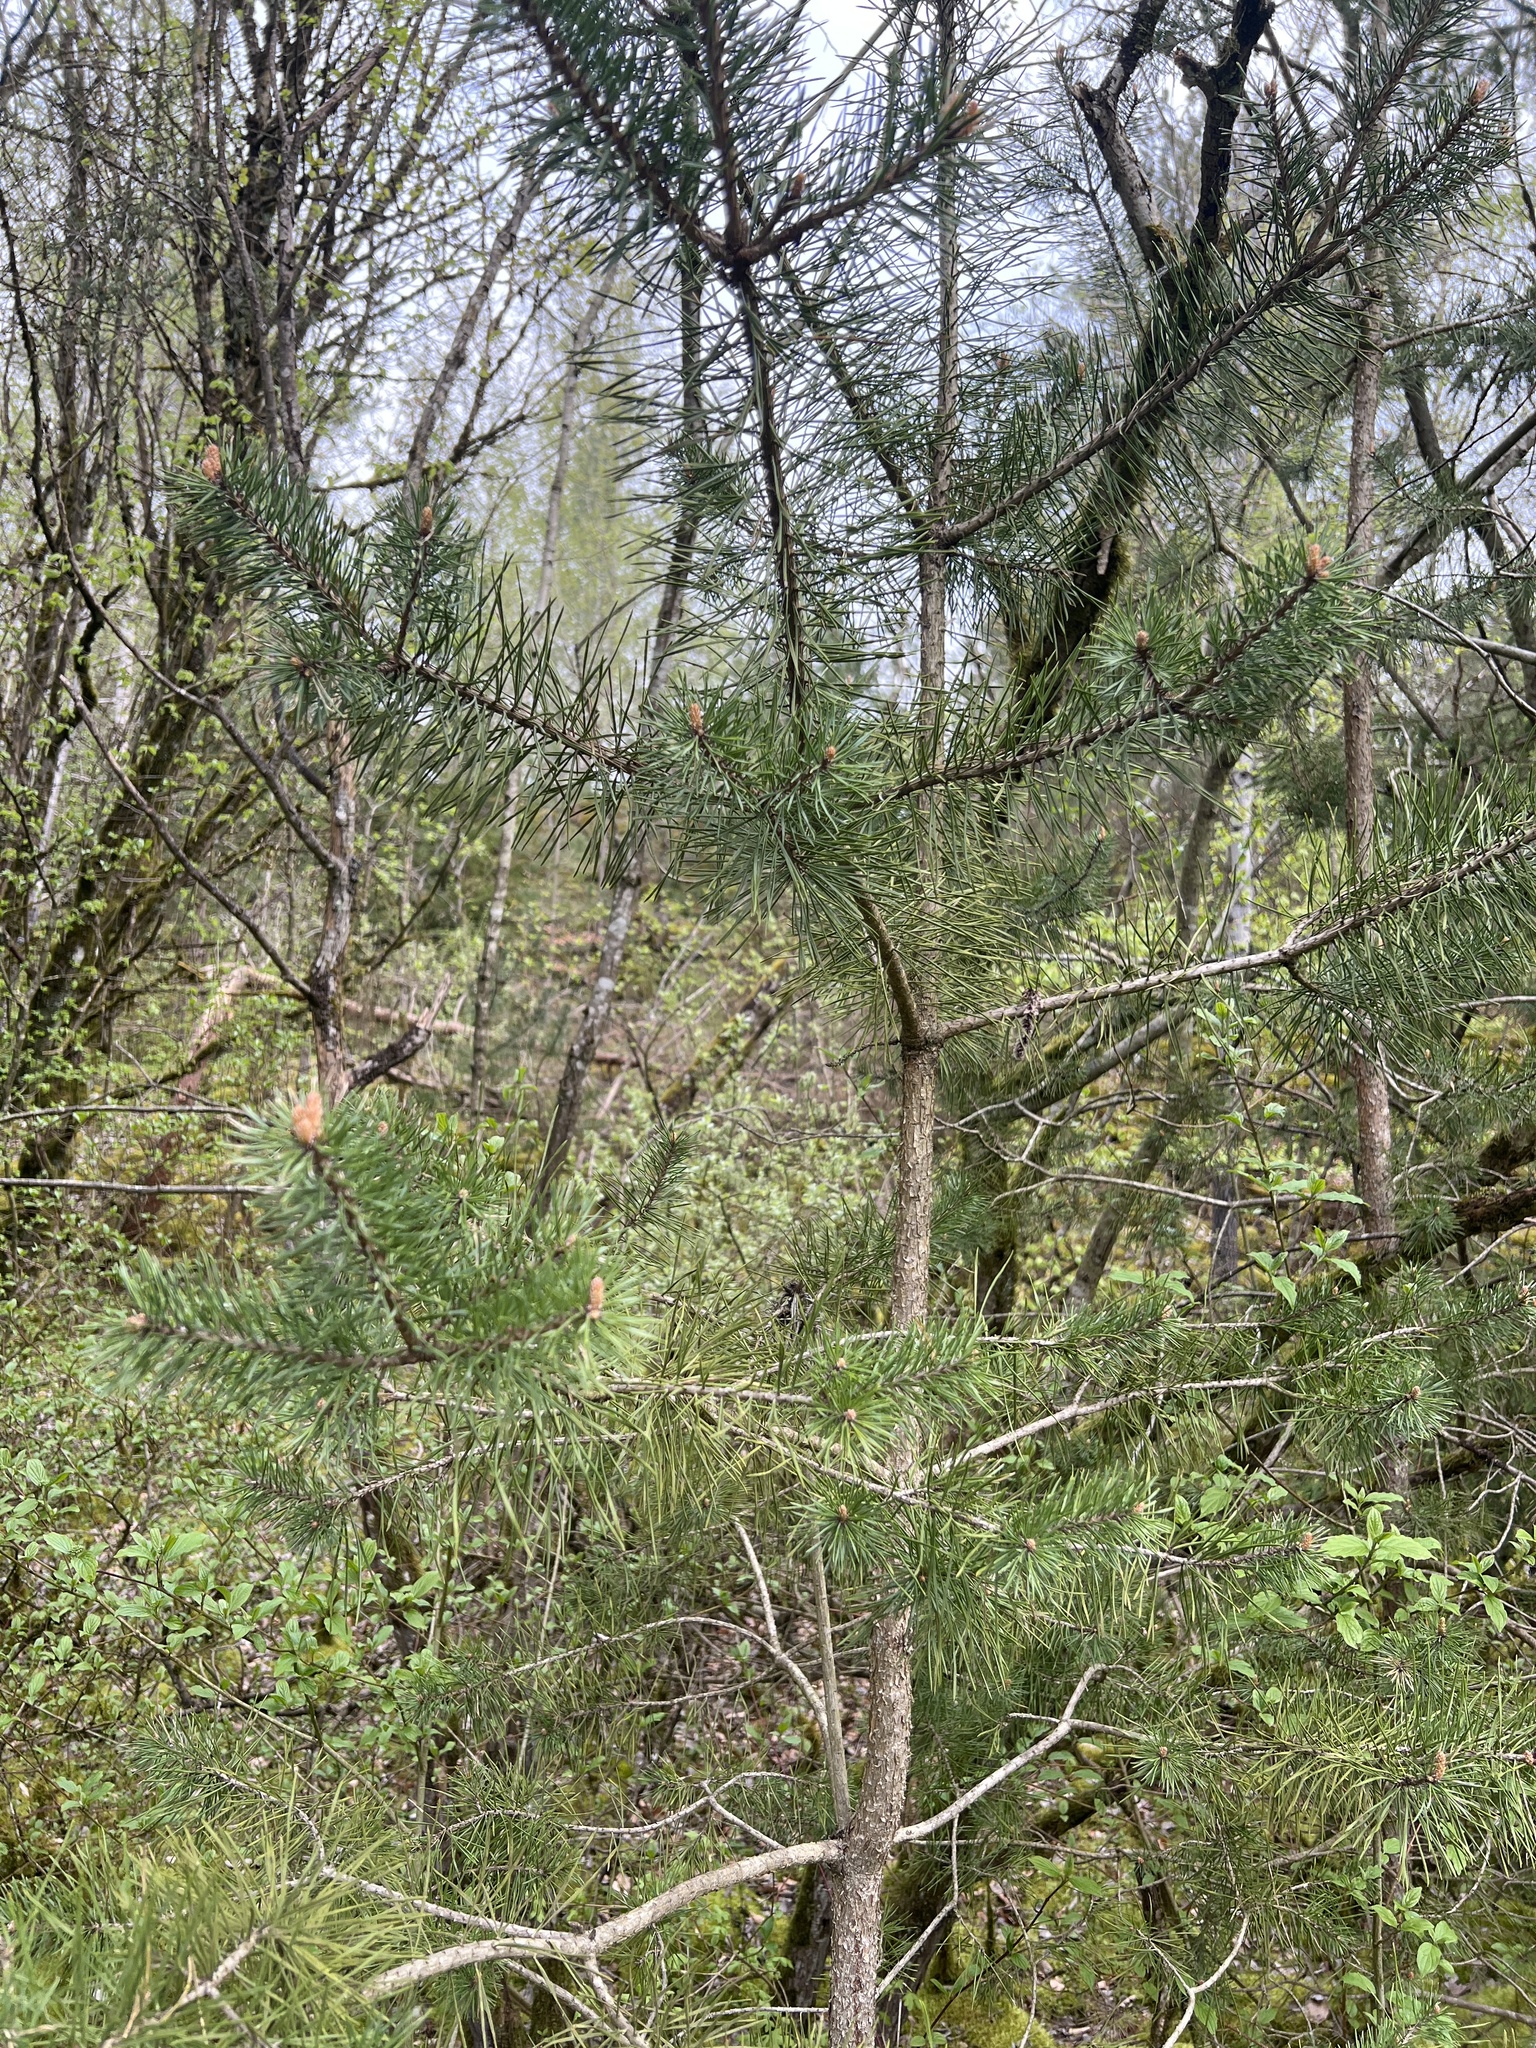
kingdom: Plantae
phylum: Tracheophyta
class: Pinopsida
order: Pinales
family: Pinaceae
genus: Pinus
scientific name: Pinus sylvestris
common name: Scots pine
